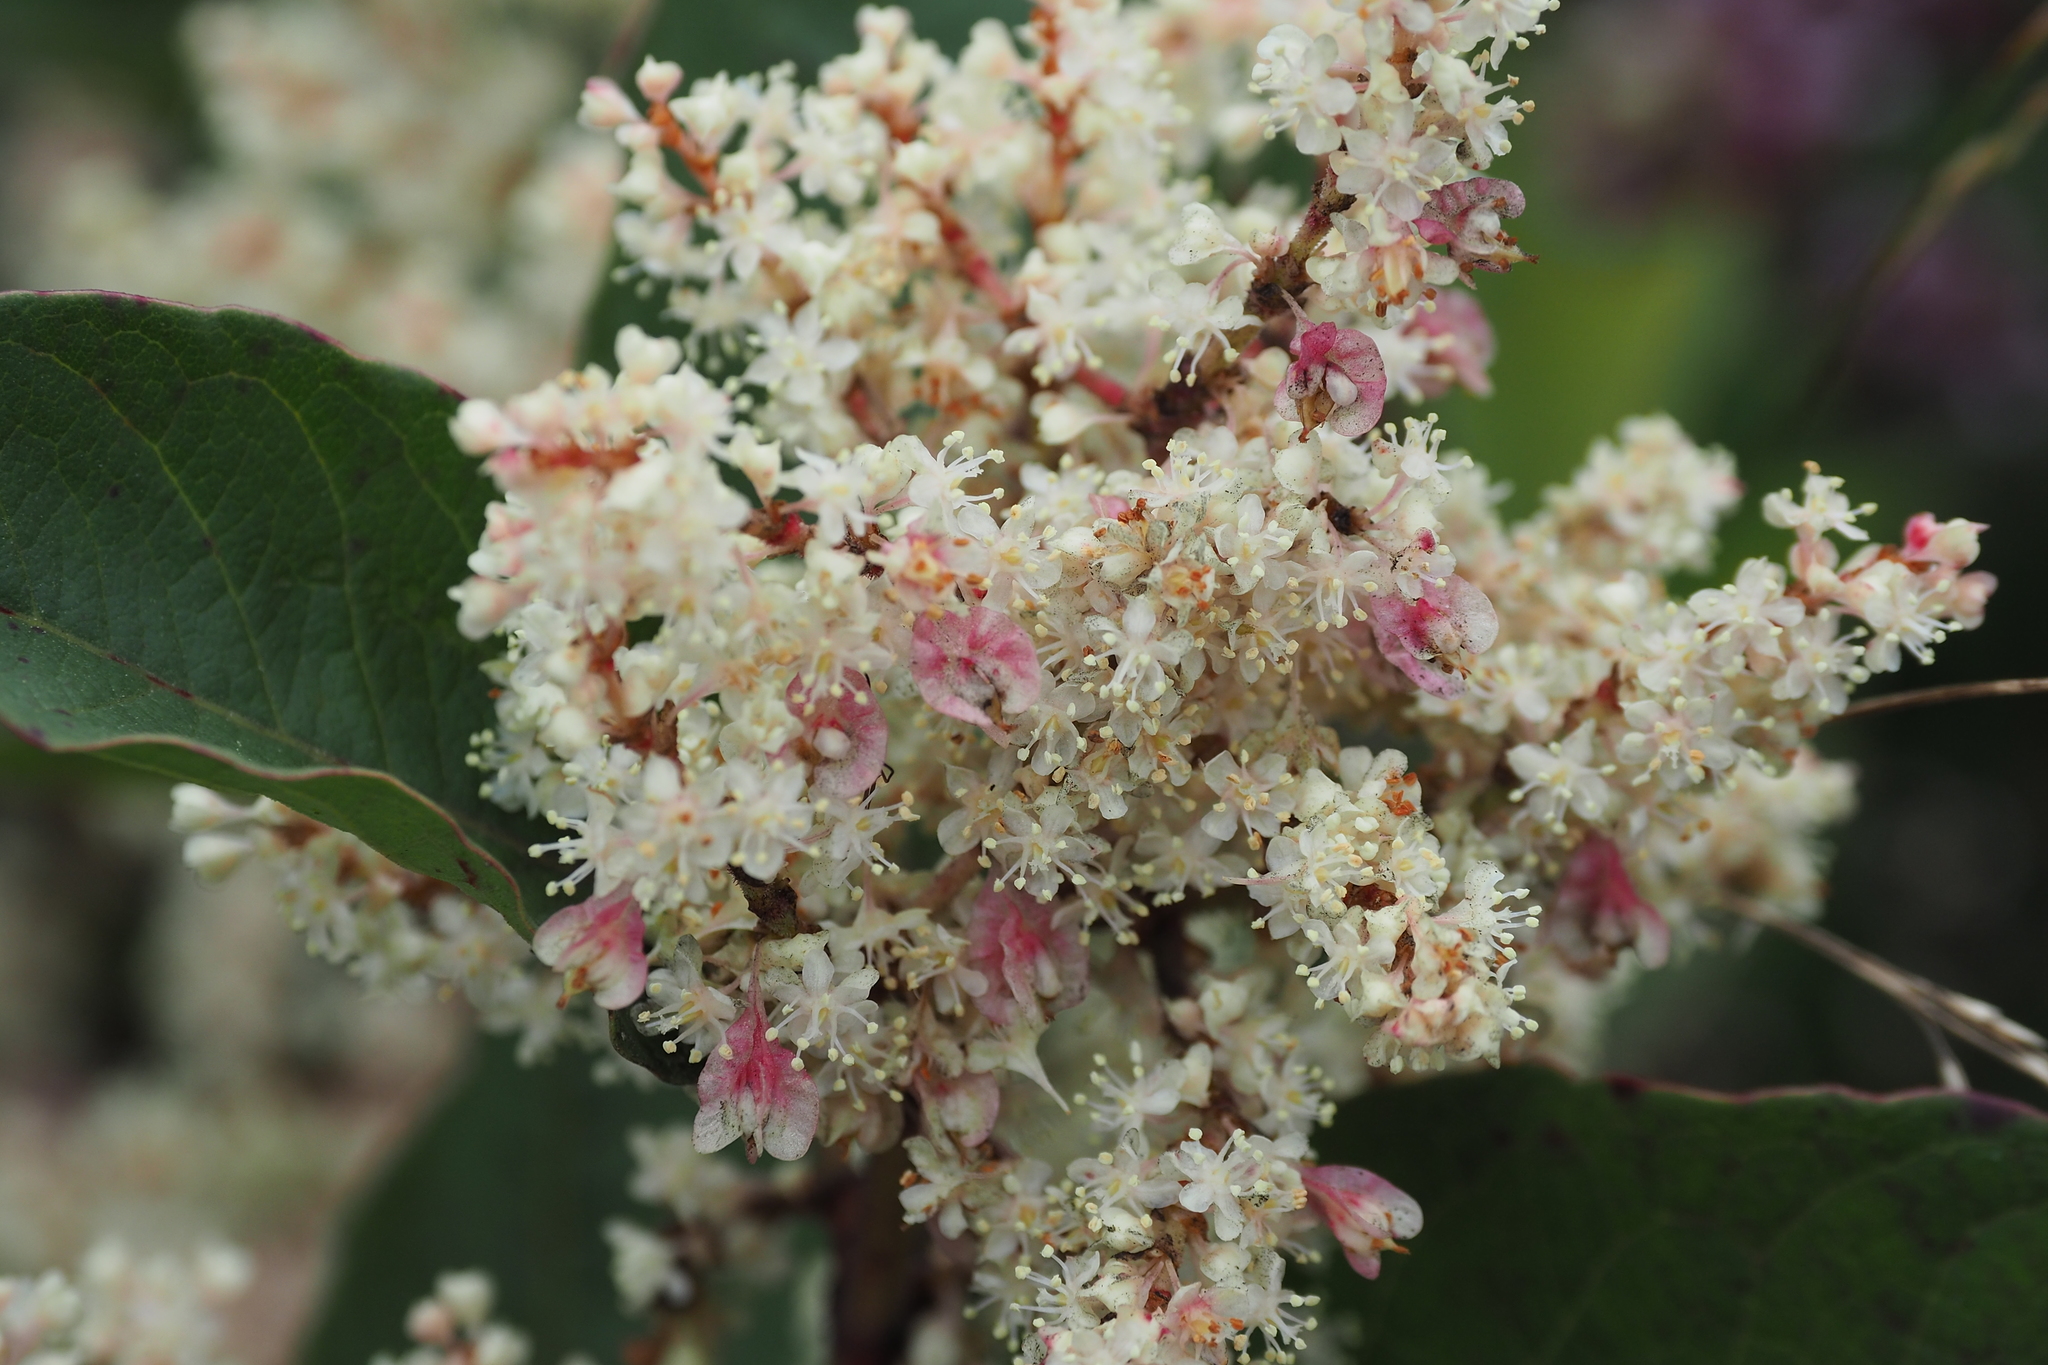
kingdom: Plantae
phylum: Tracheophyta
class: Magnoliopsida
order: Caryophyllales
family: Polygonaceae
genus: Reynoutria
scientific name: Reynoutria japonica
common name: Japanese knotweed
